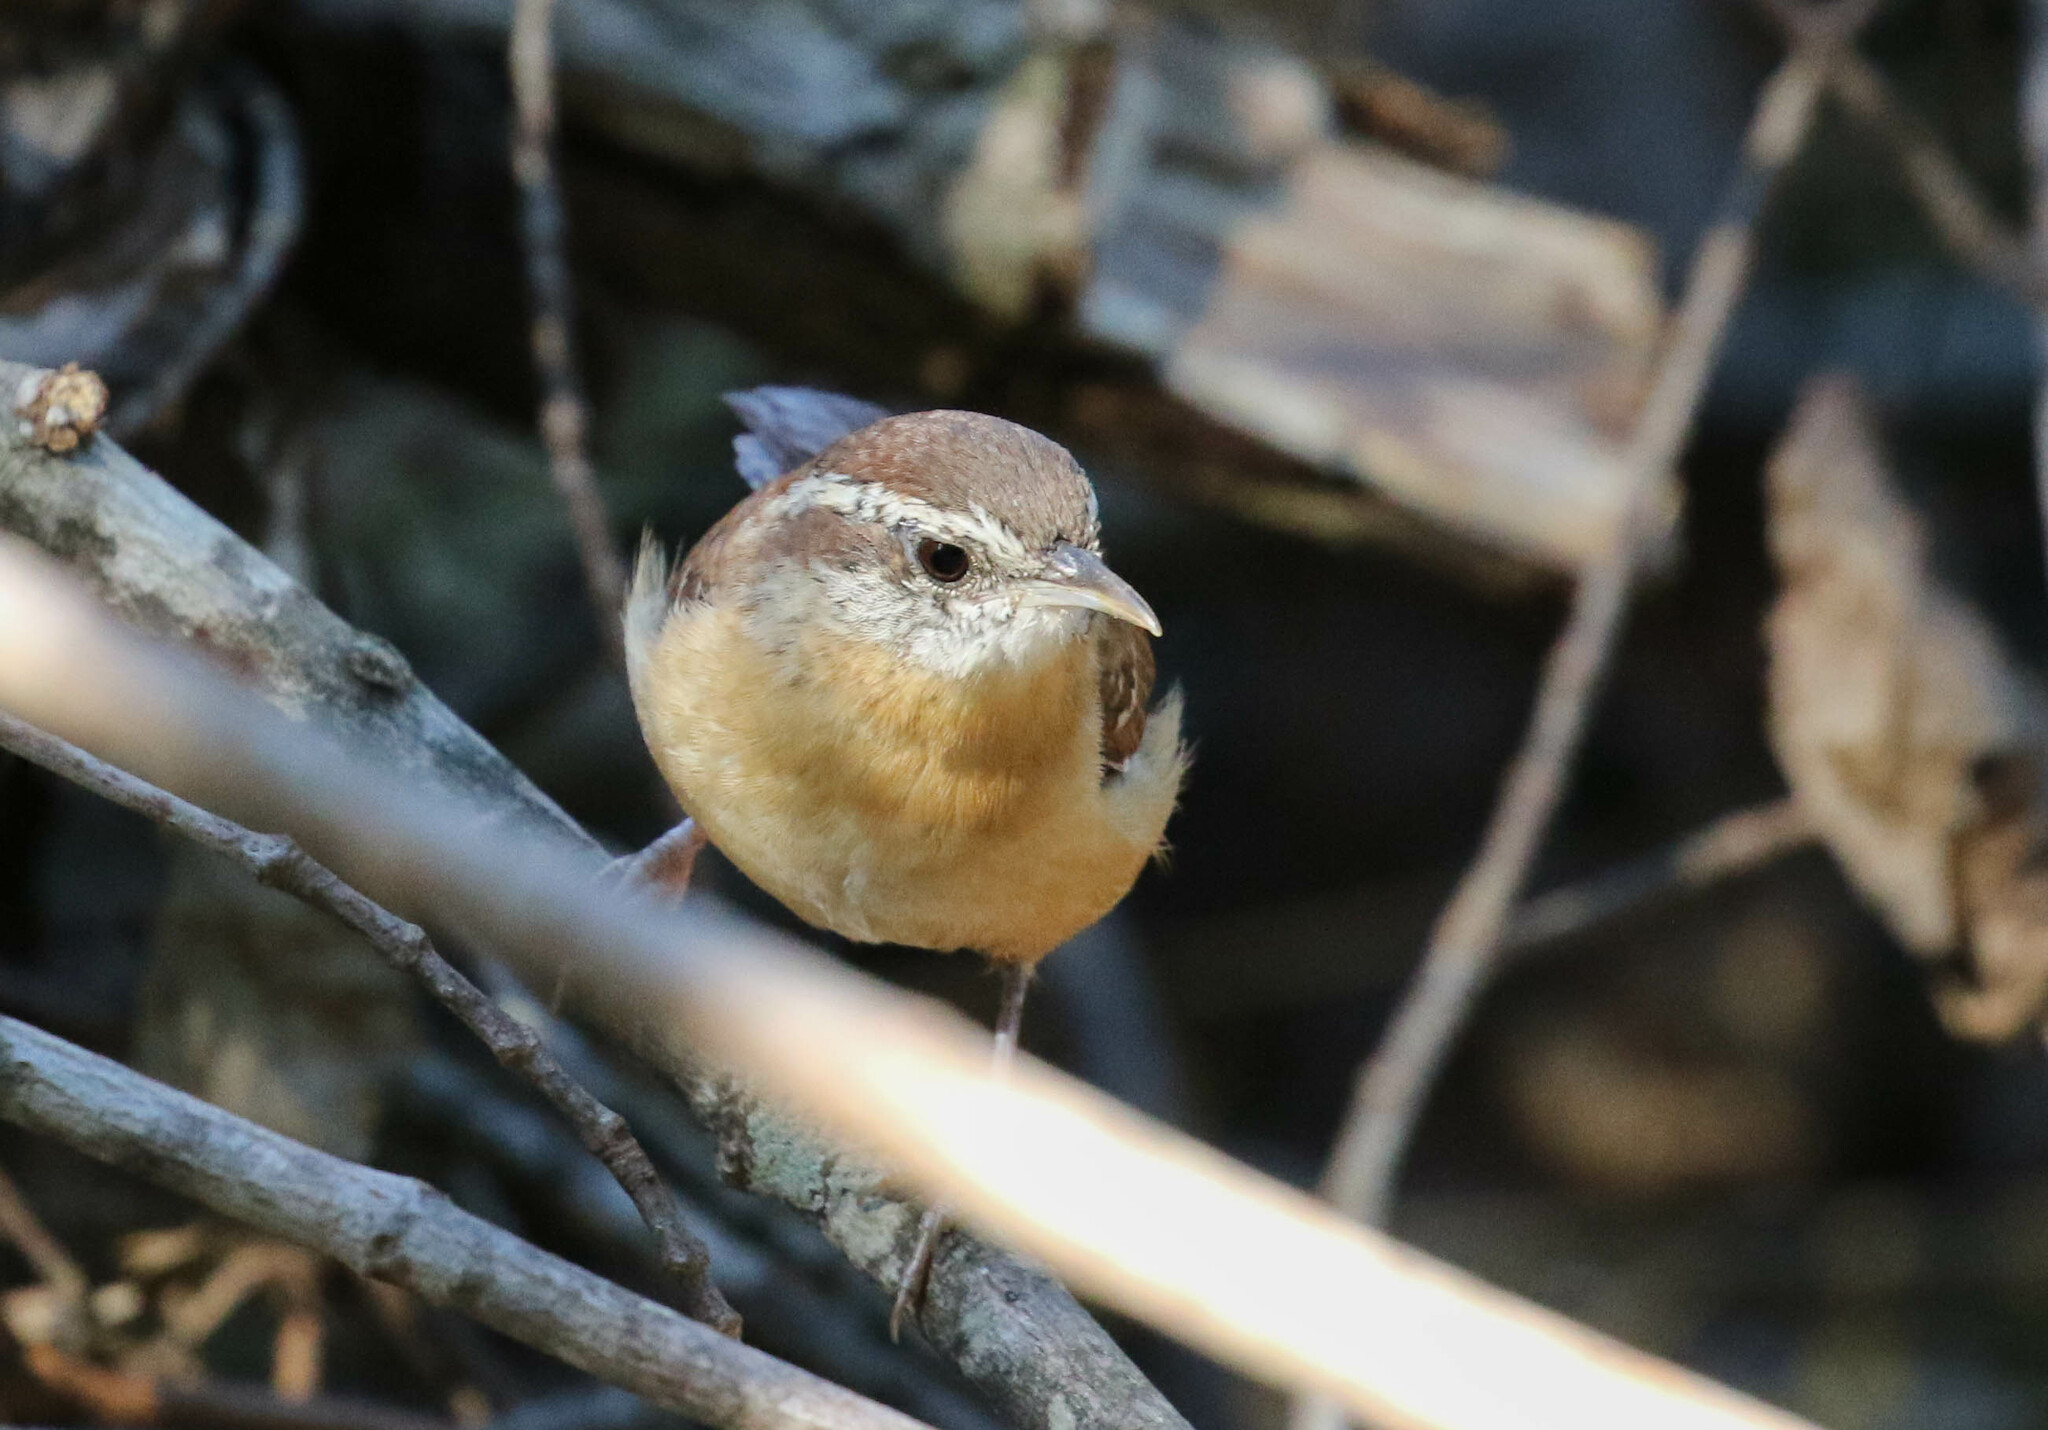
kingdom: Animalia
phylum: Chordata
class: Aves
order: Passeriformes
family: Troglodytidae
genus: Thryothorus
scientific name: Thryothorus ludovicianus
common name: Carolina wren
